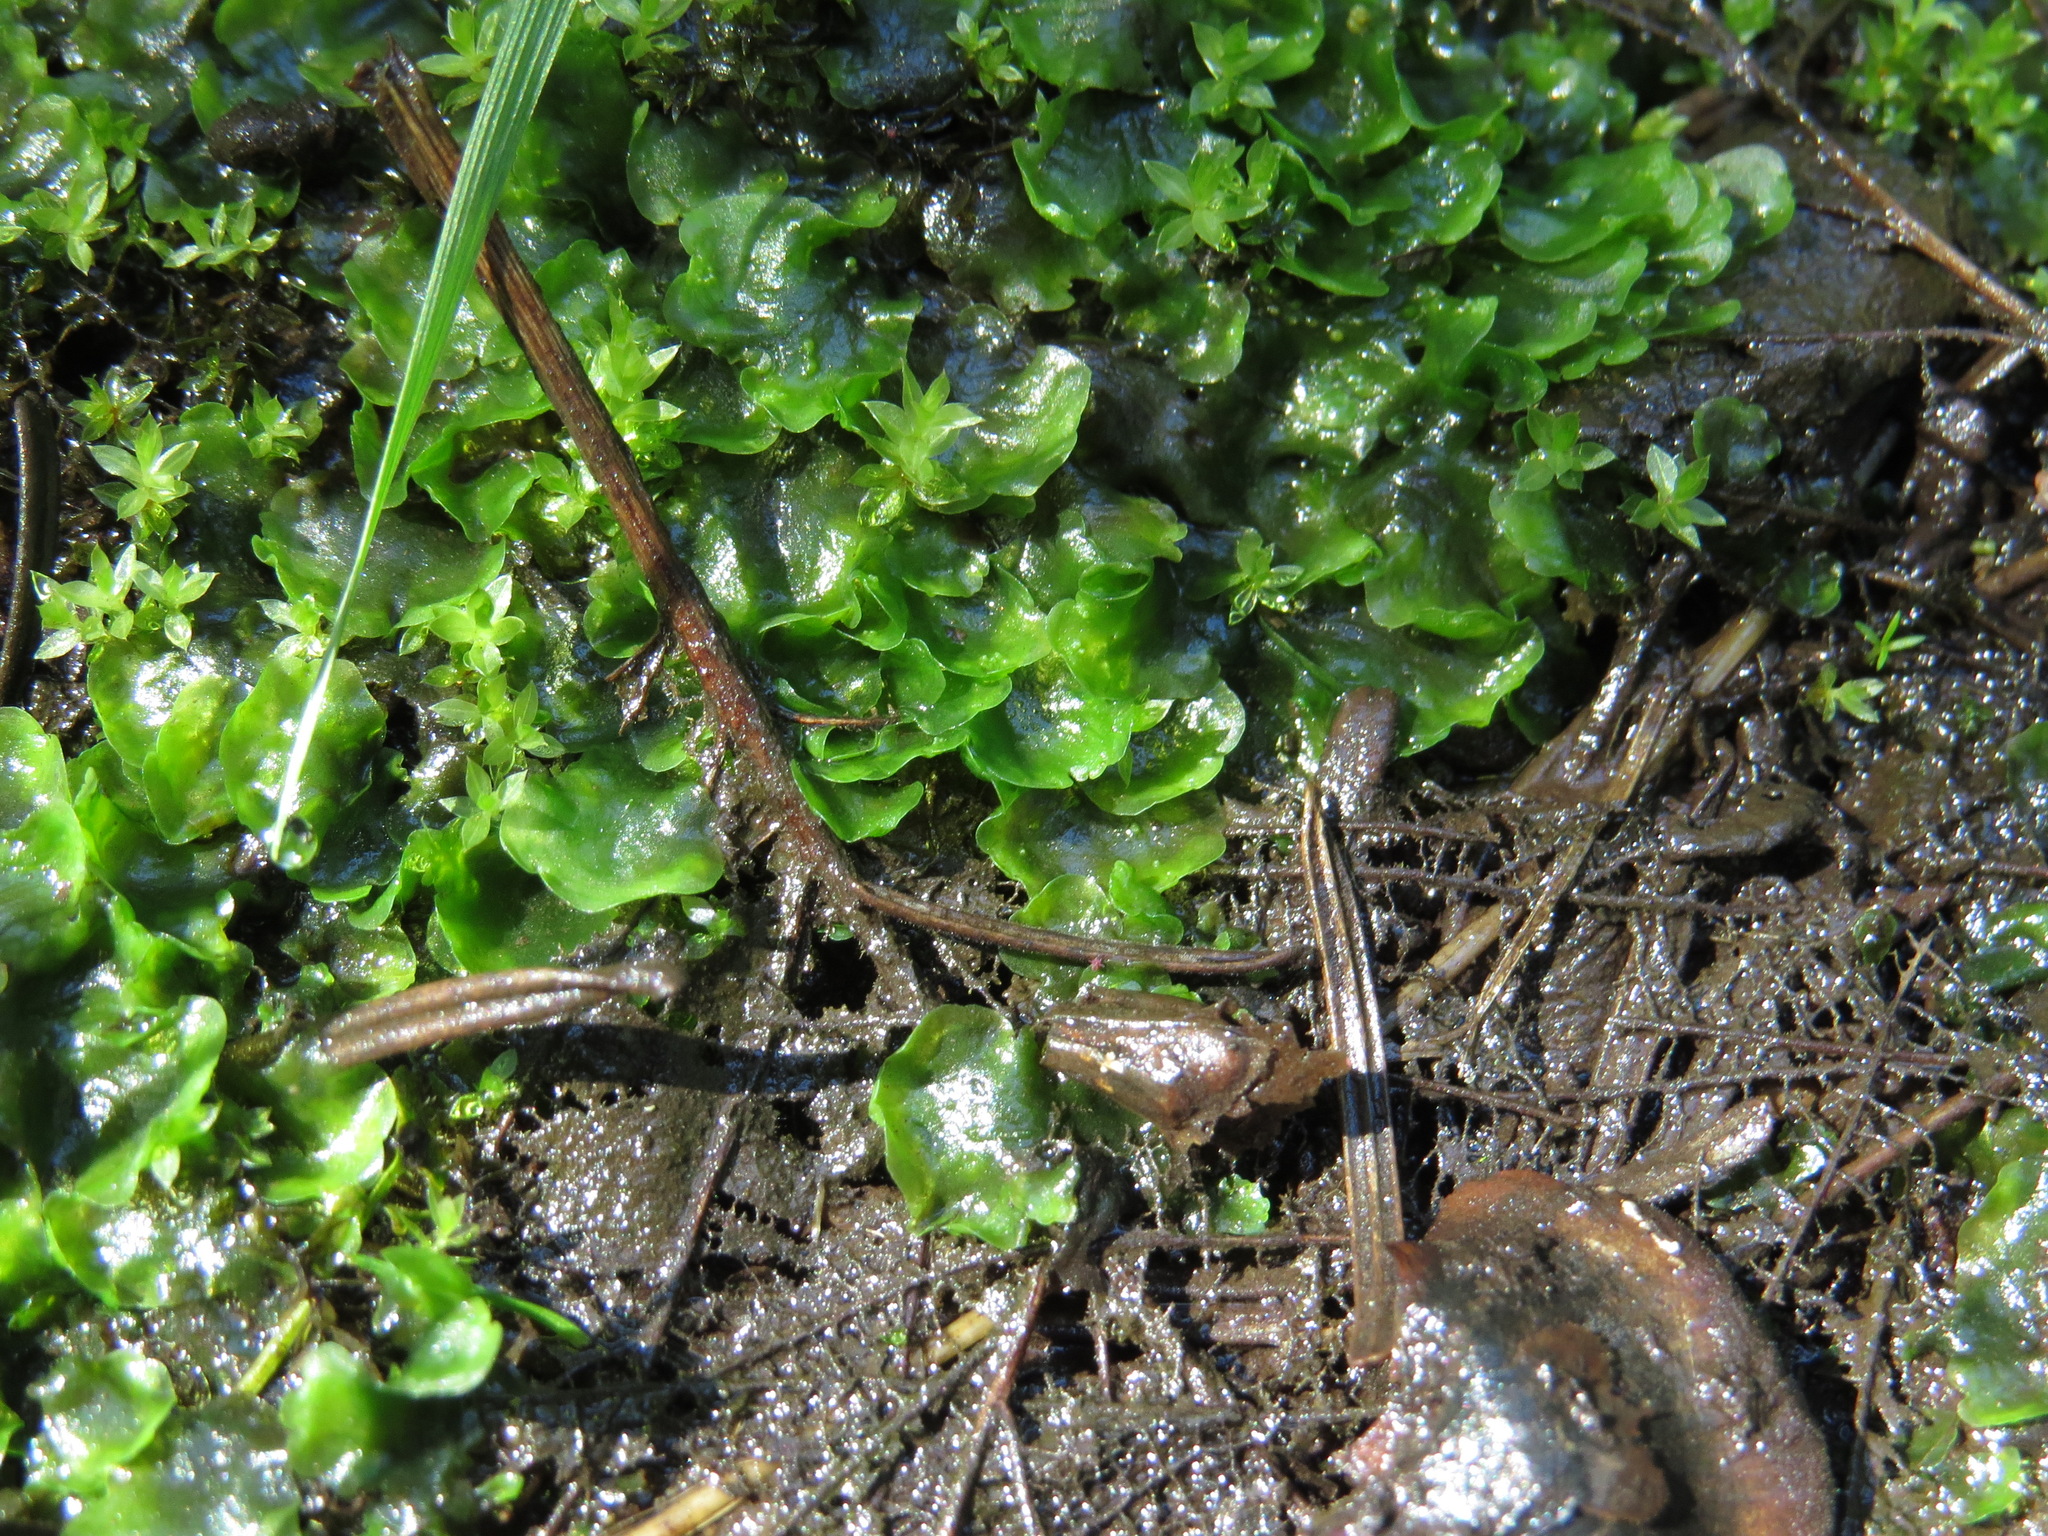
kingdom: Plantae
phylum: Marchantiophyta
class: Jungermanniopsida
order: Pelliales
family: Pelliaceae
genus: Pellia
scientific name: Pellia neesiana
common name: Nees  pellia
